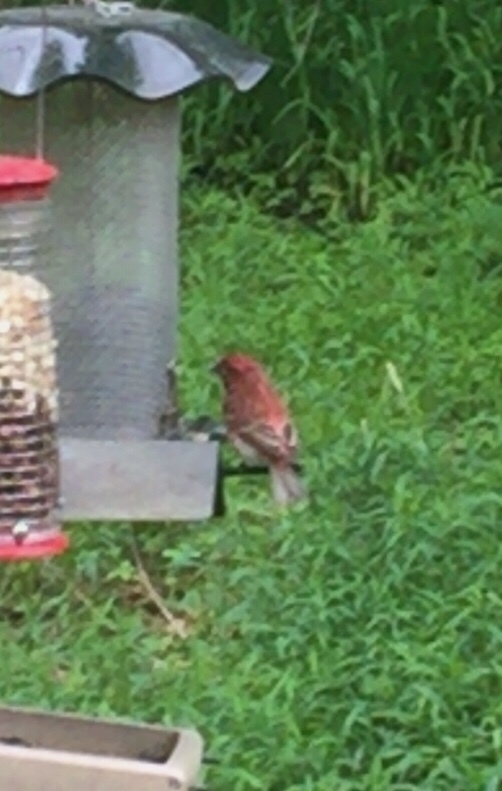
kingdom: Animalia
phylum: Chordata
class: Aves
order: Passeriformes
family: Fringillidae
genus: Haemorhous
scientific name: Haemorhous purpureus
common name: Purple finch
